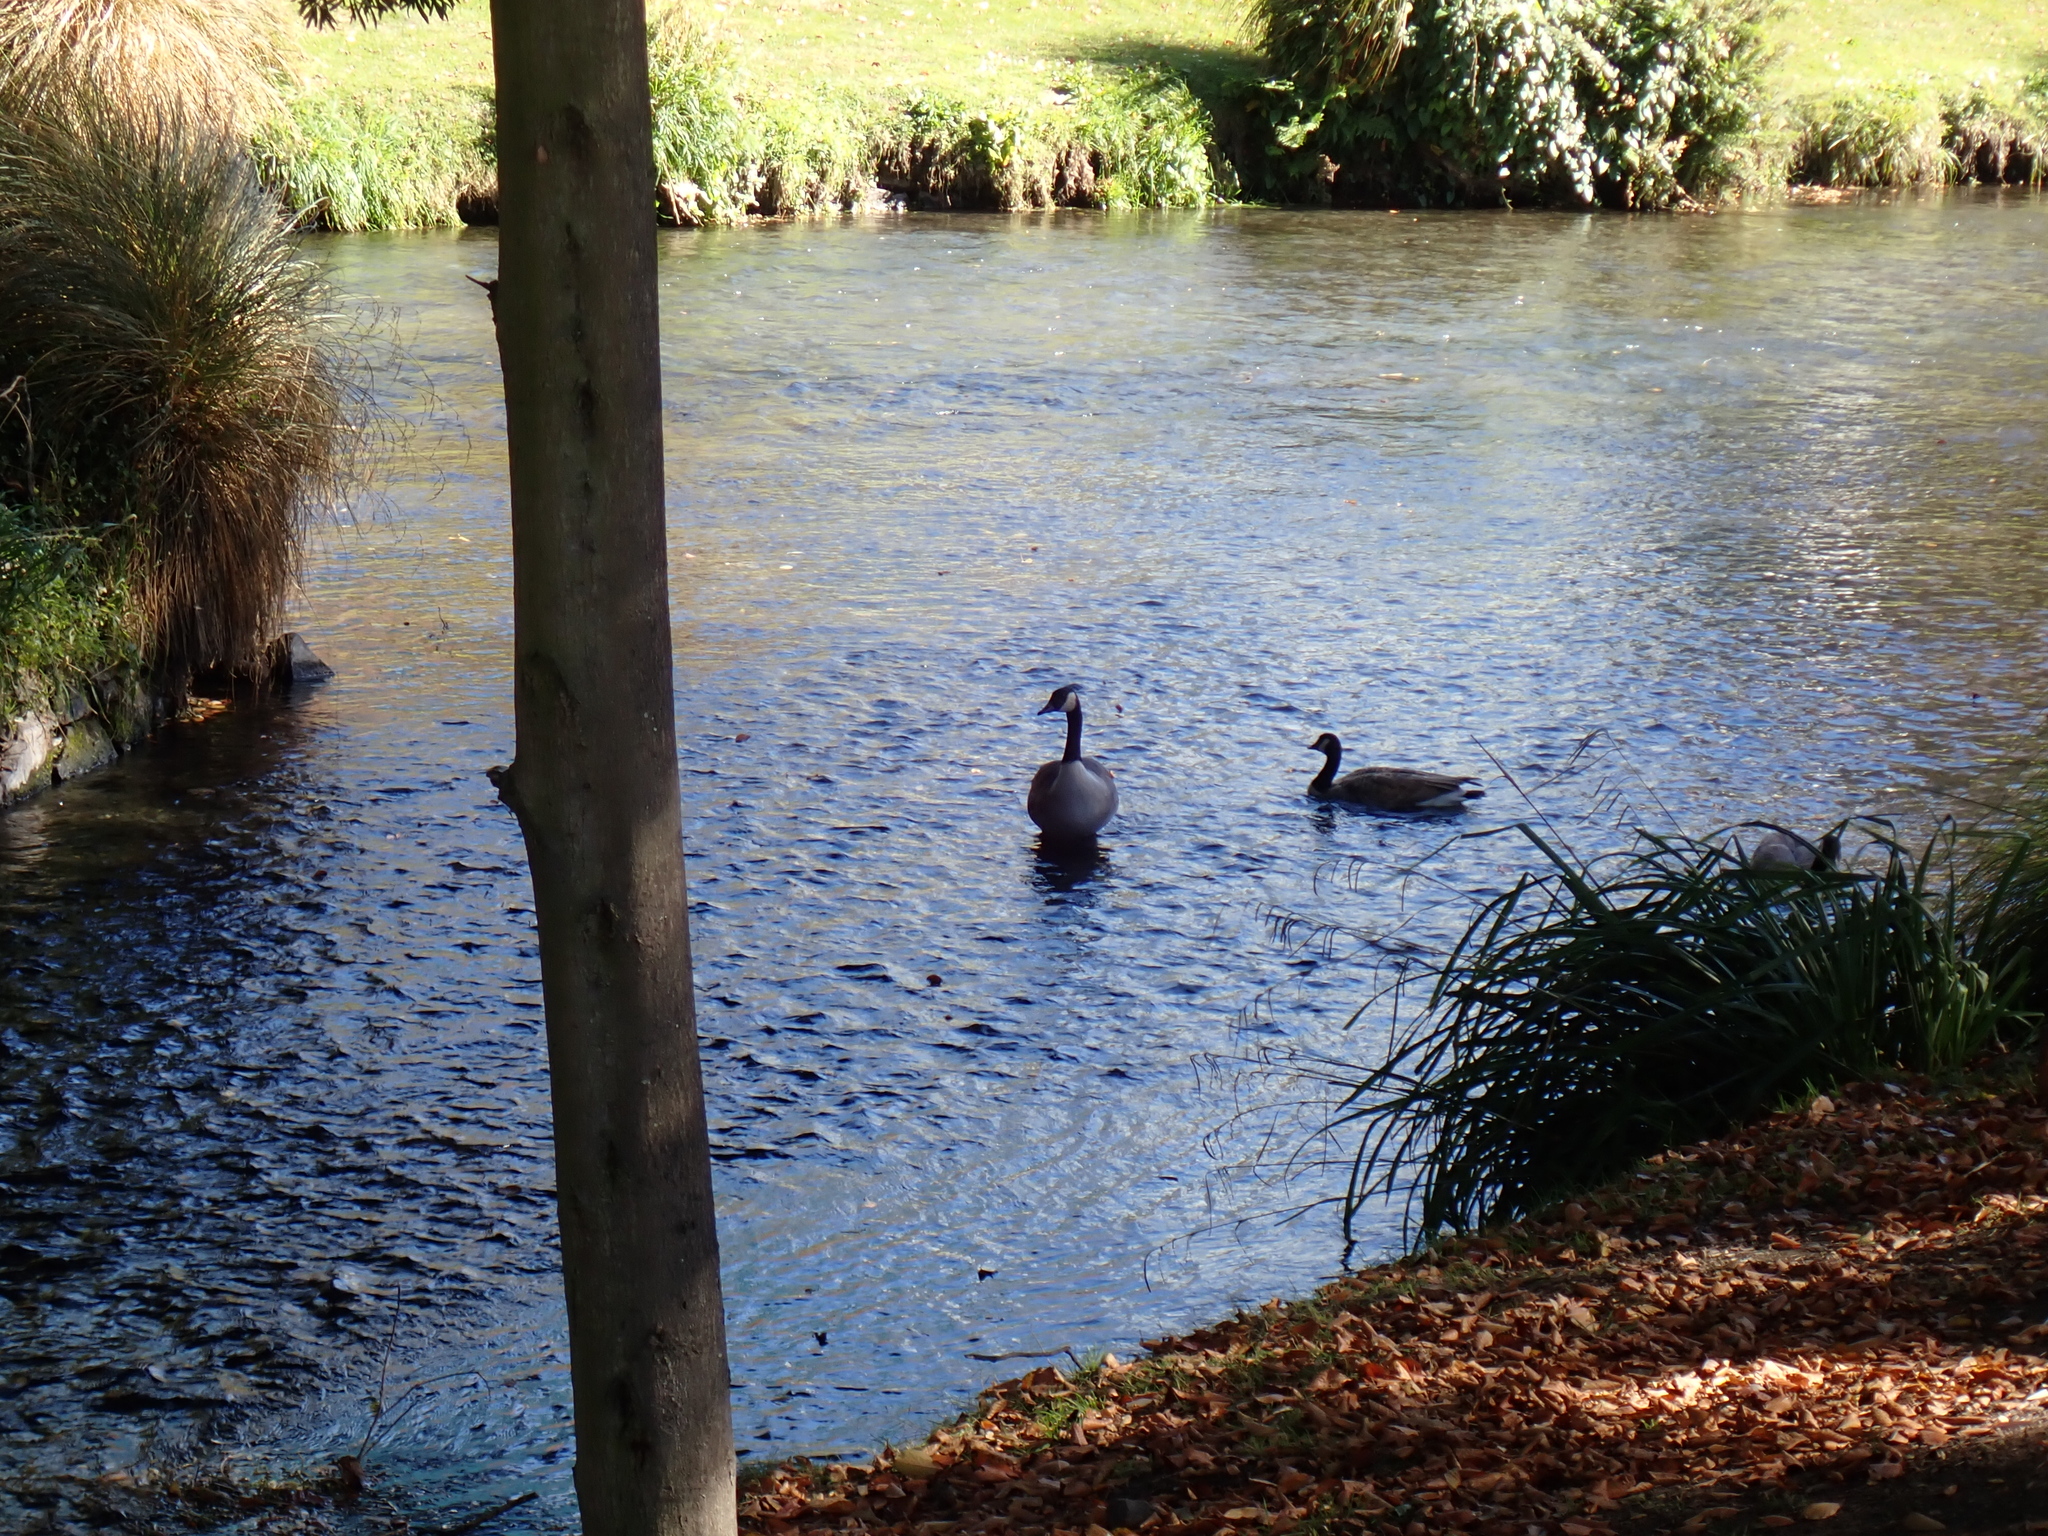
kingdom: Animalia
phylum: Chordata
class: Aves
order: Anseriformes
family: Anatidae
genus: Branta
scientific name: Branta canadensis
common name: Canada goose
